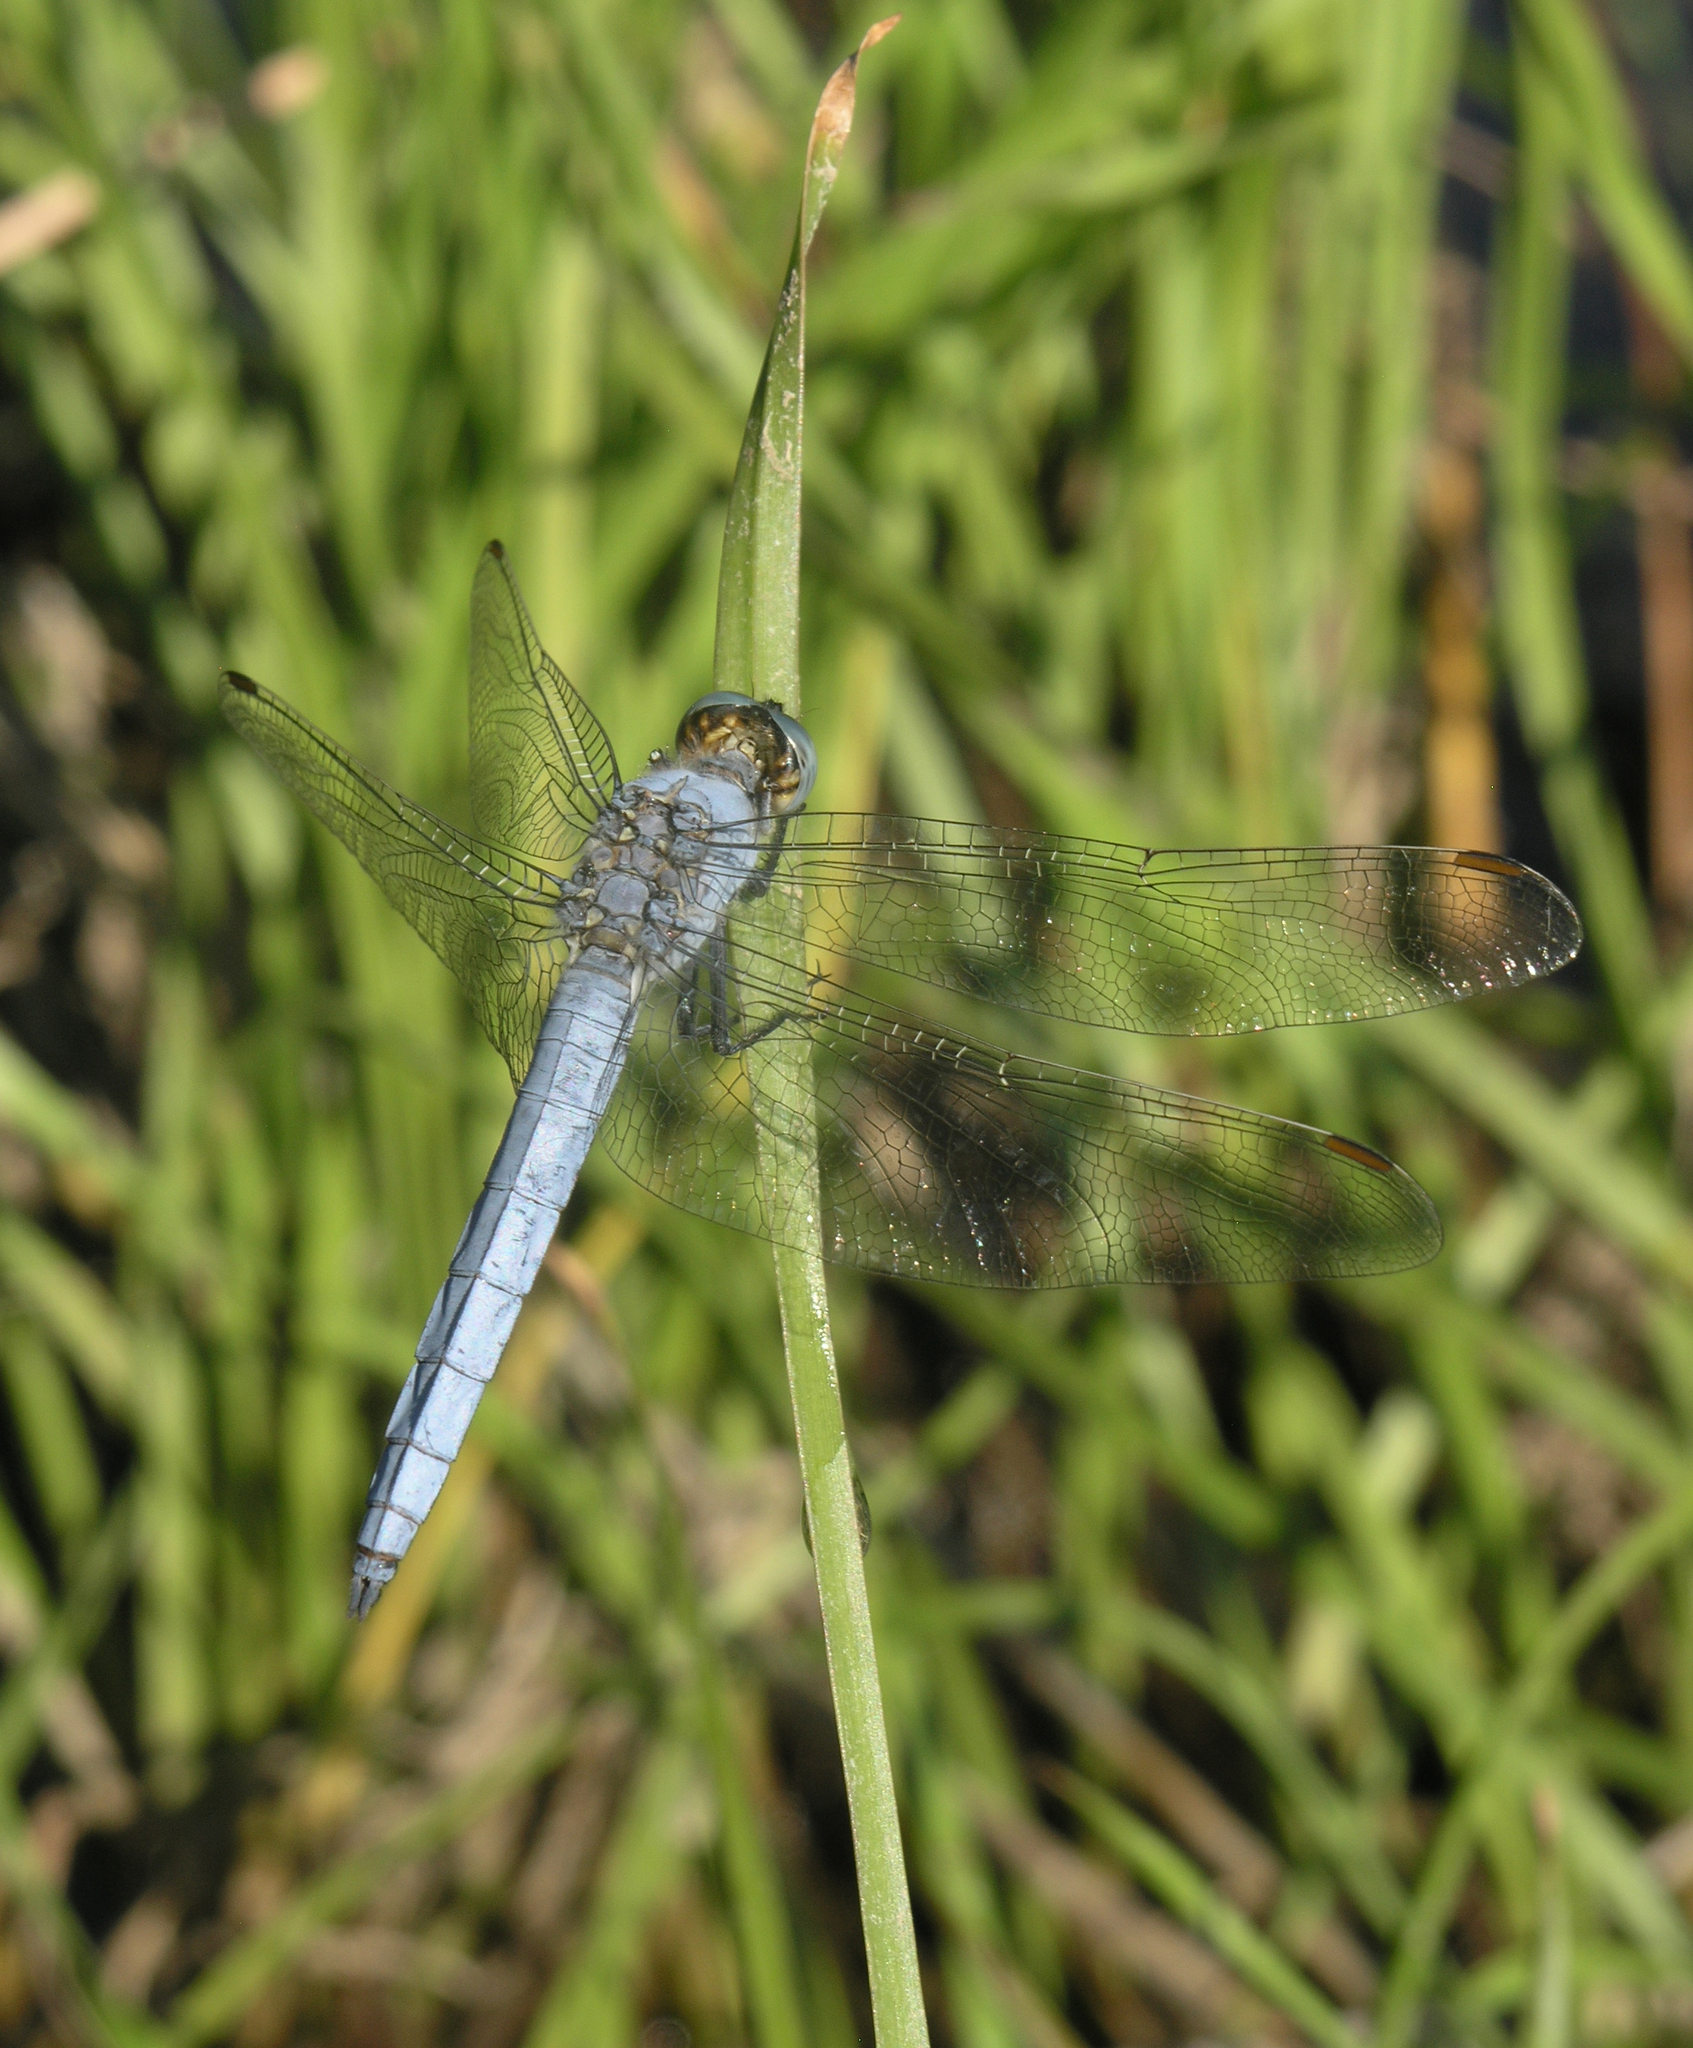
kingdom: Animalia
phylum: Arthropoda
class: Insecta
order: Odonata
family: Libellulidae
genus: Orthetrum
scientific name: Orthetrum brunneum
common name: Southern skimmer
